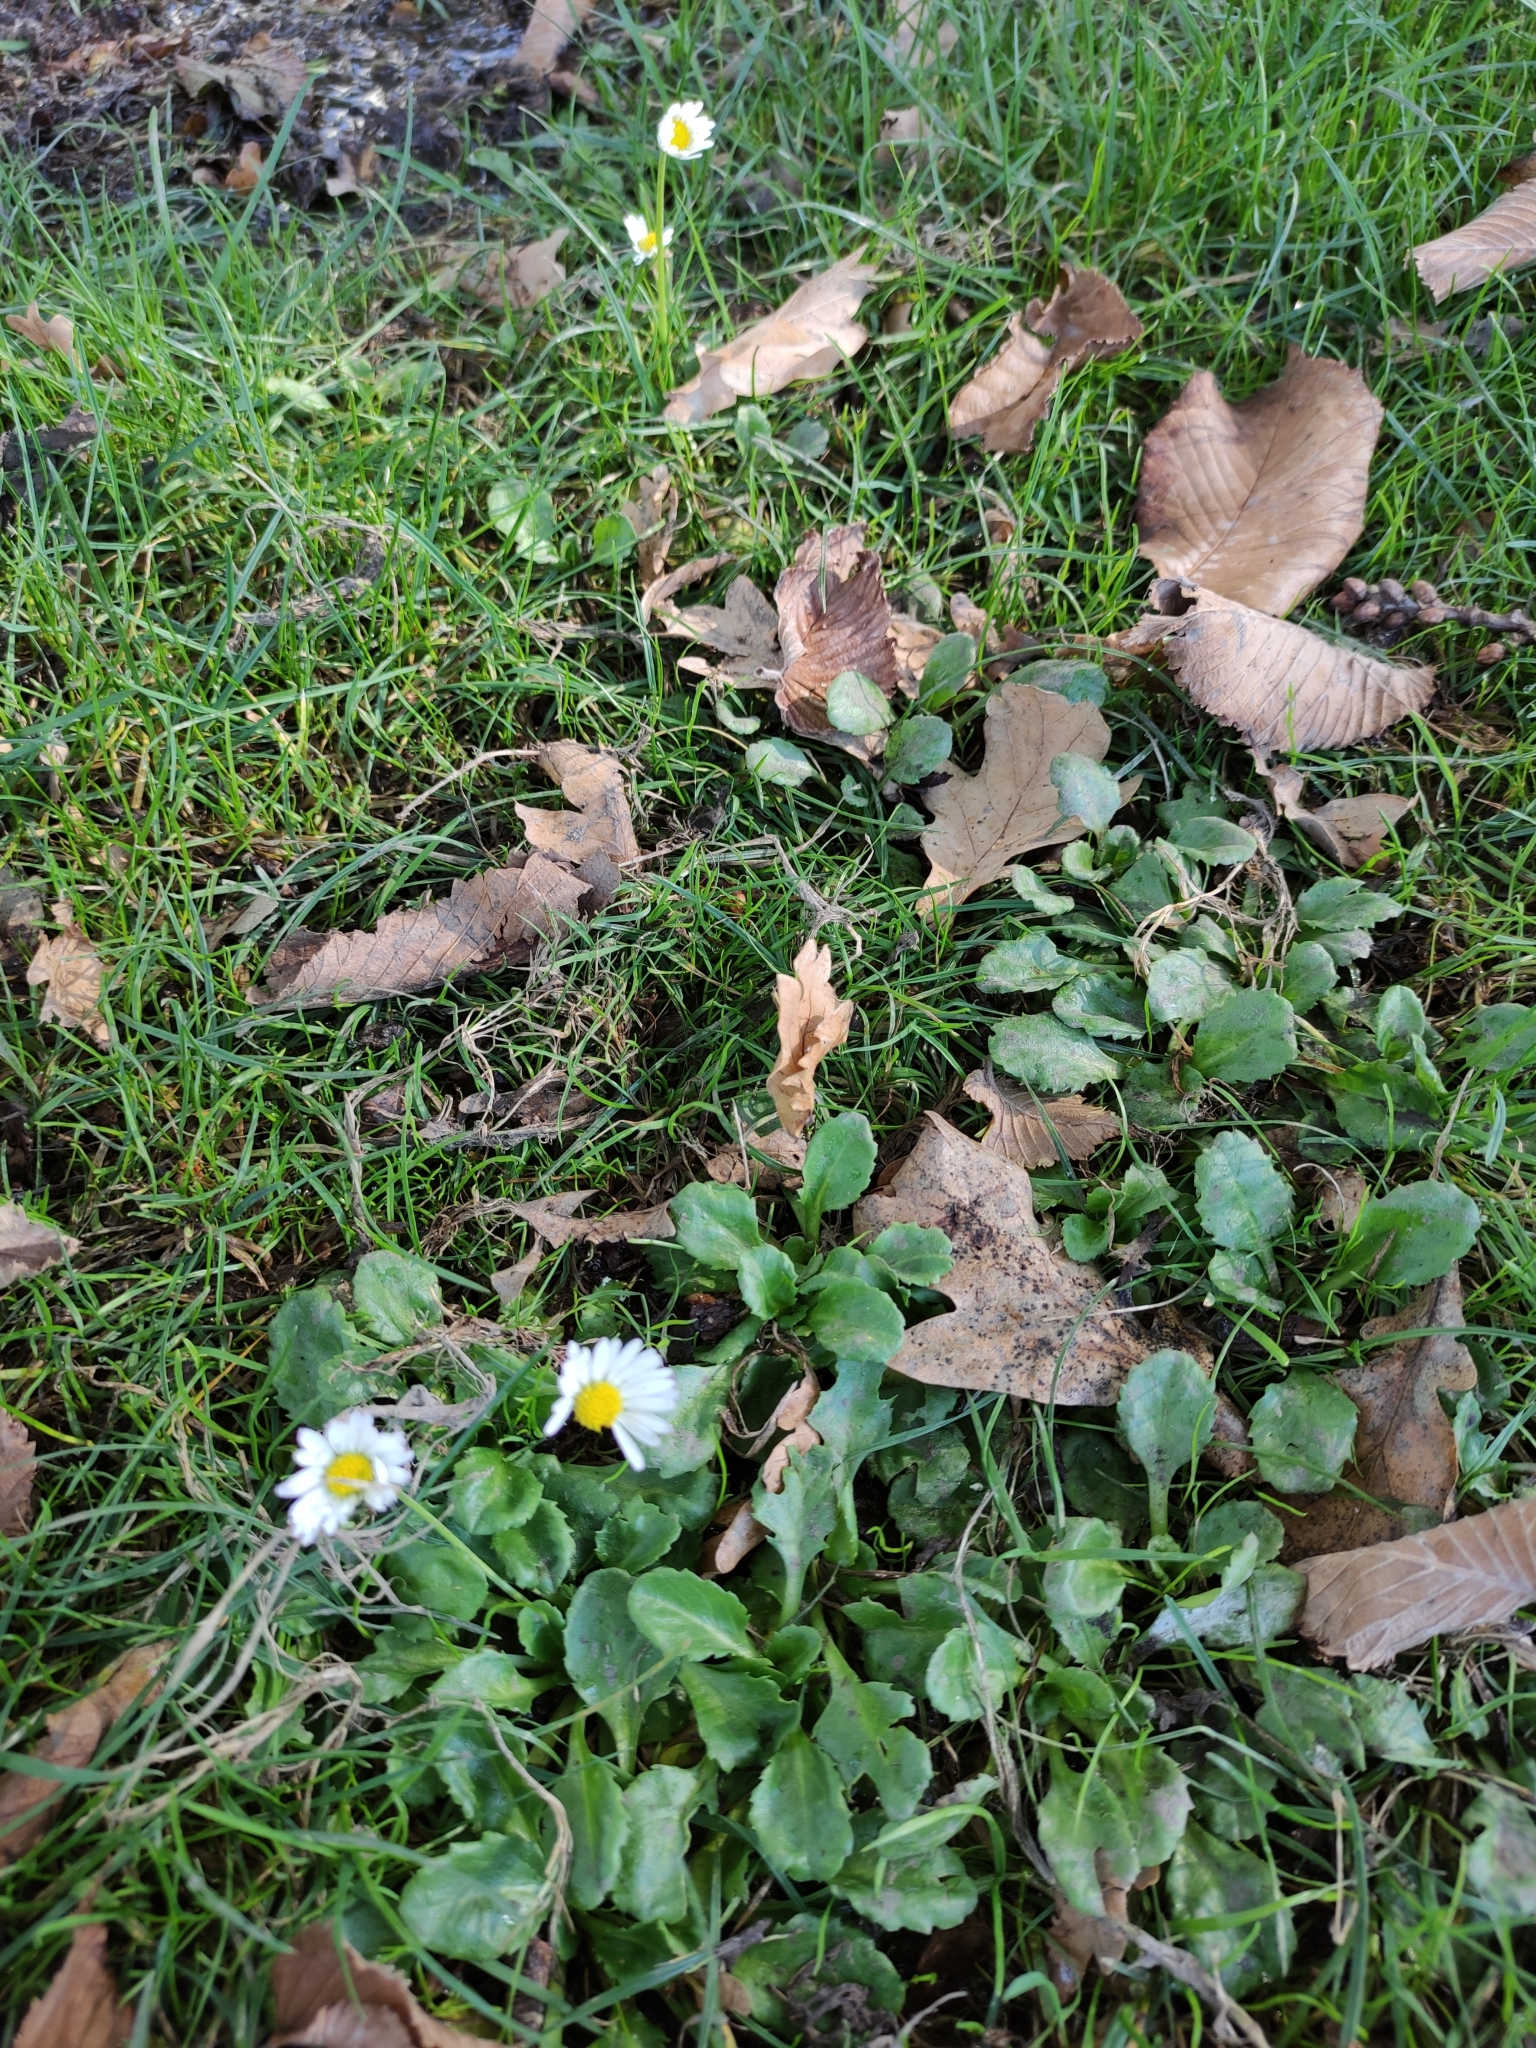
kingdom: Plantae
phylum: Tracheophyta
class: Magnoliopsida
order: Asterales
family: Asteraceae
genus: Bellis
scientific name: Bellis perennis
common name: Lawndaisy
